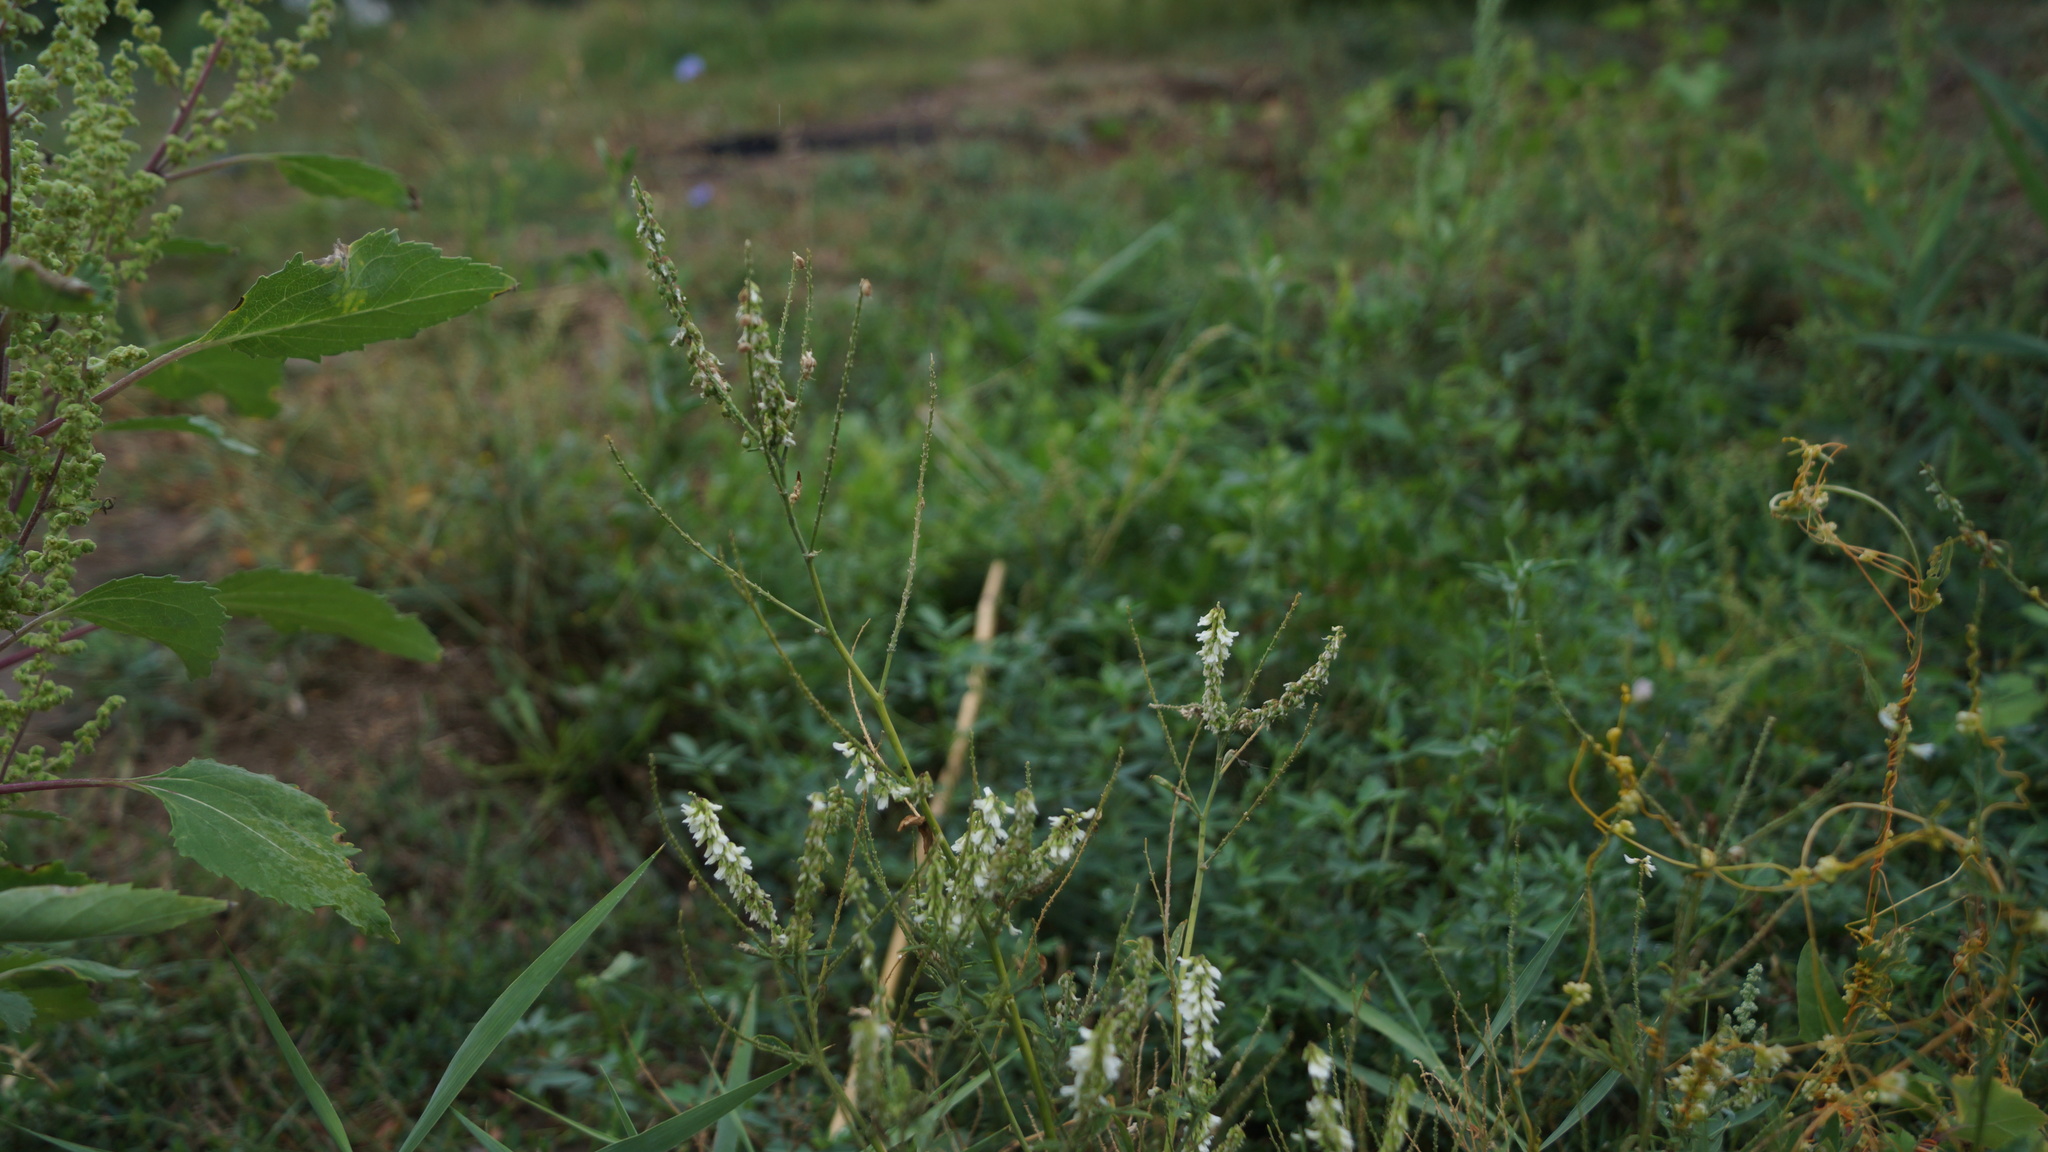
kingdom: Plantae
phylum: Tracheophyta
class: Magnoliopsida
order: Fabales
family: Fabaceae
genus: Melilotus
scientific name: Melilotus albus
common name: White melilot
